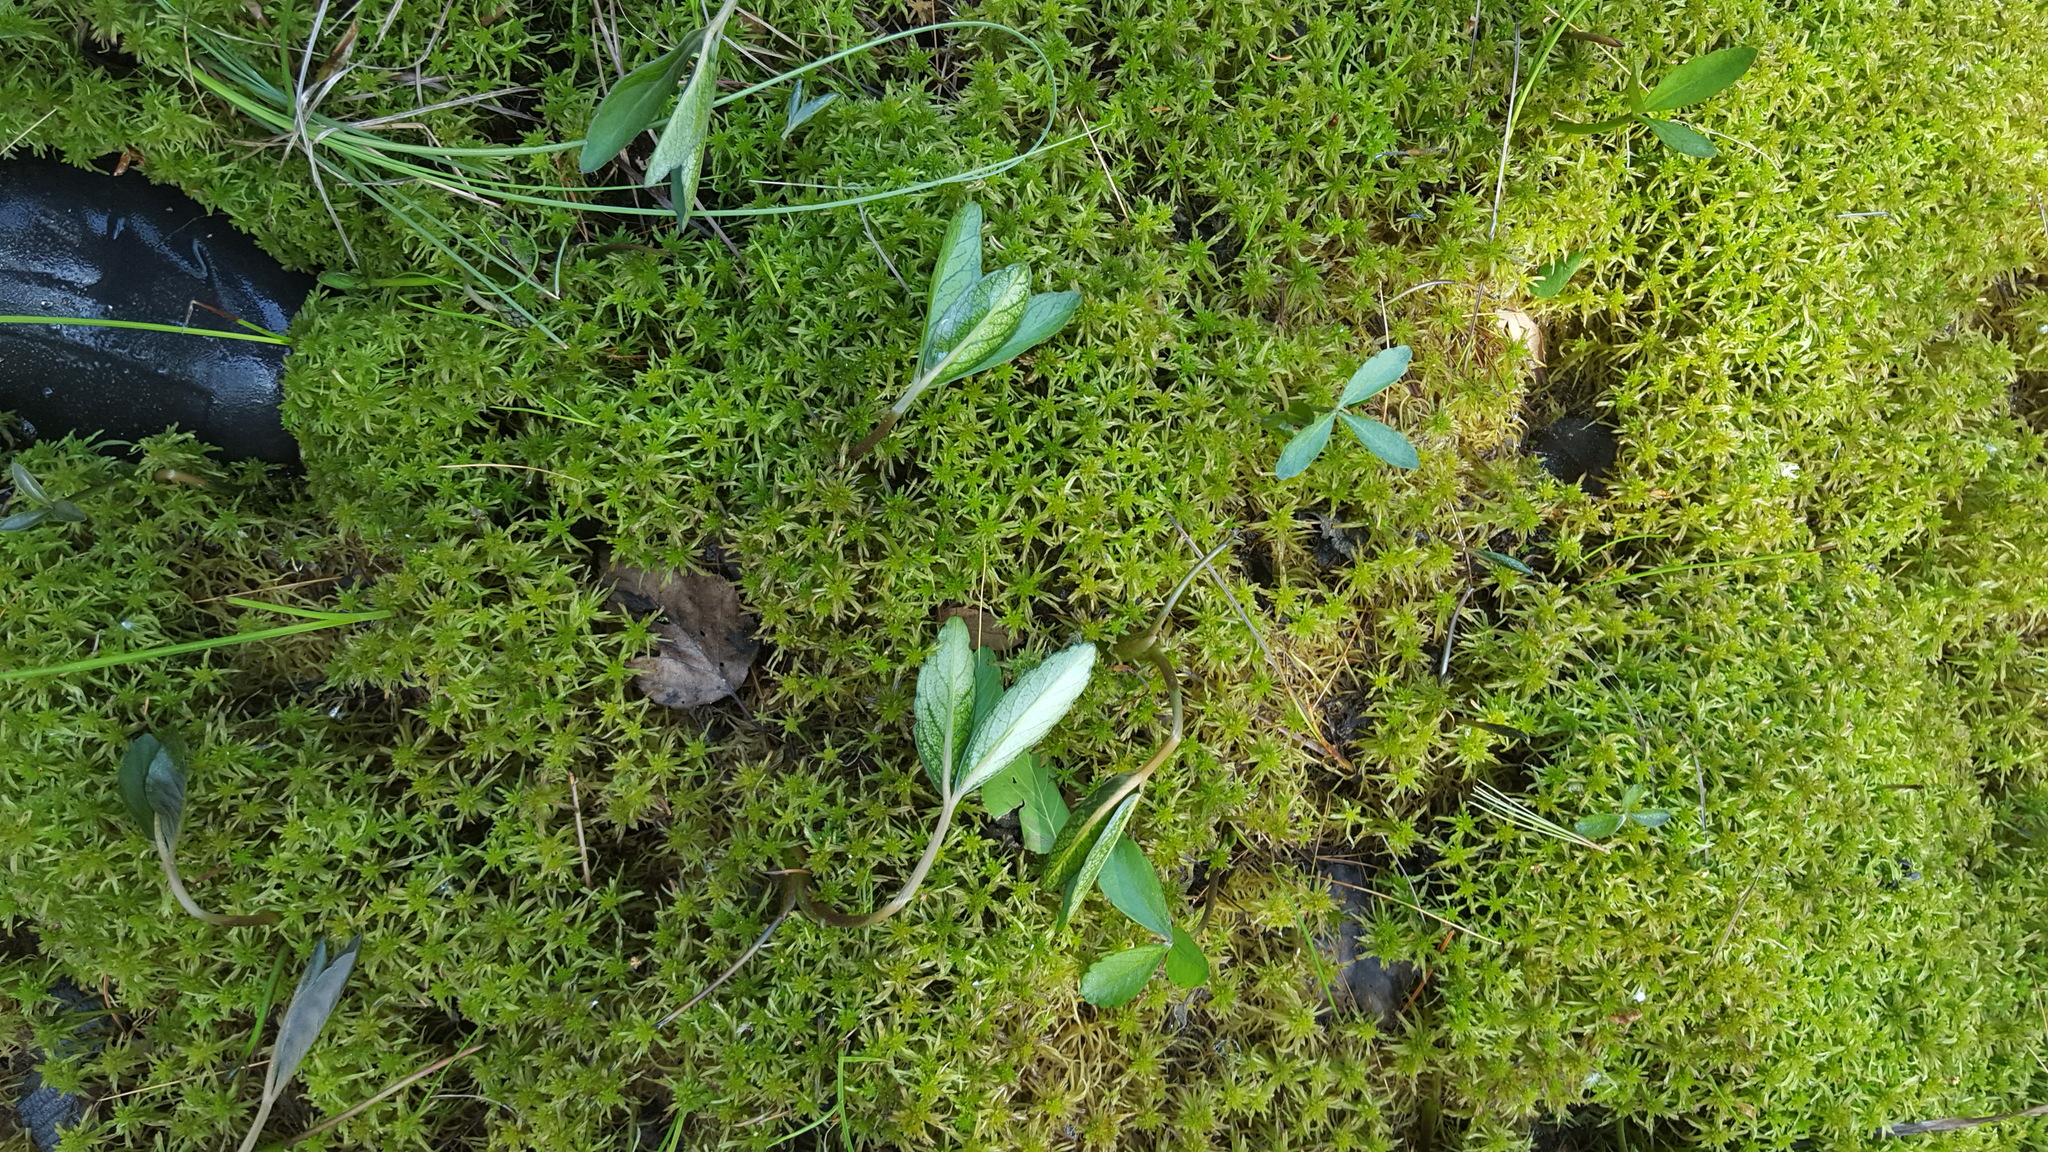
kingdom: Plantae
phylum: Tracheophyta
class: Magnoliopsida
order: Asterales
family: Menyanthaceae
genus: Menyanthes
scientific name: Menyanthes trifoliata
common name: Bogbean
